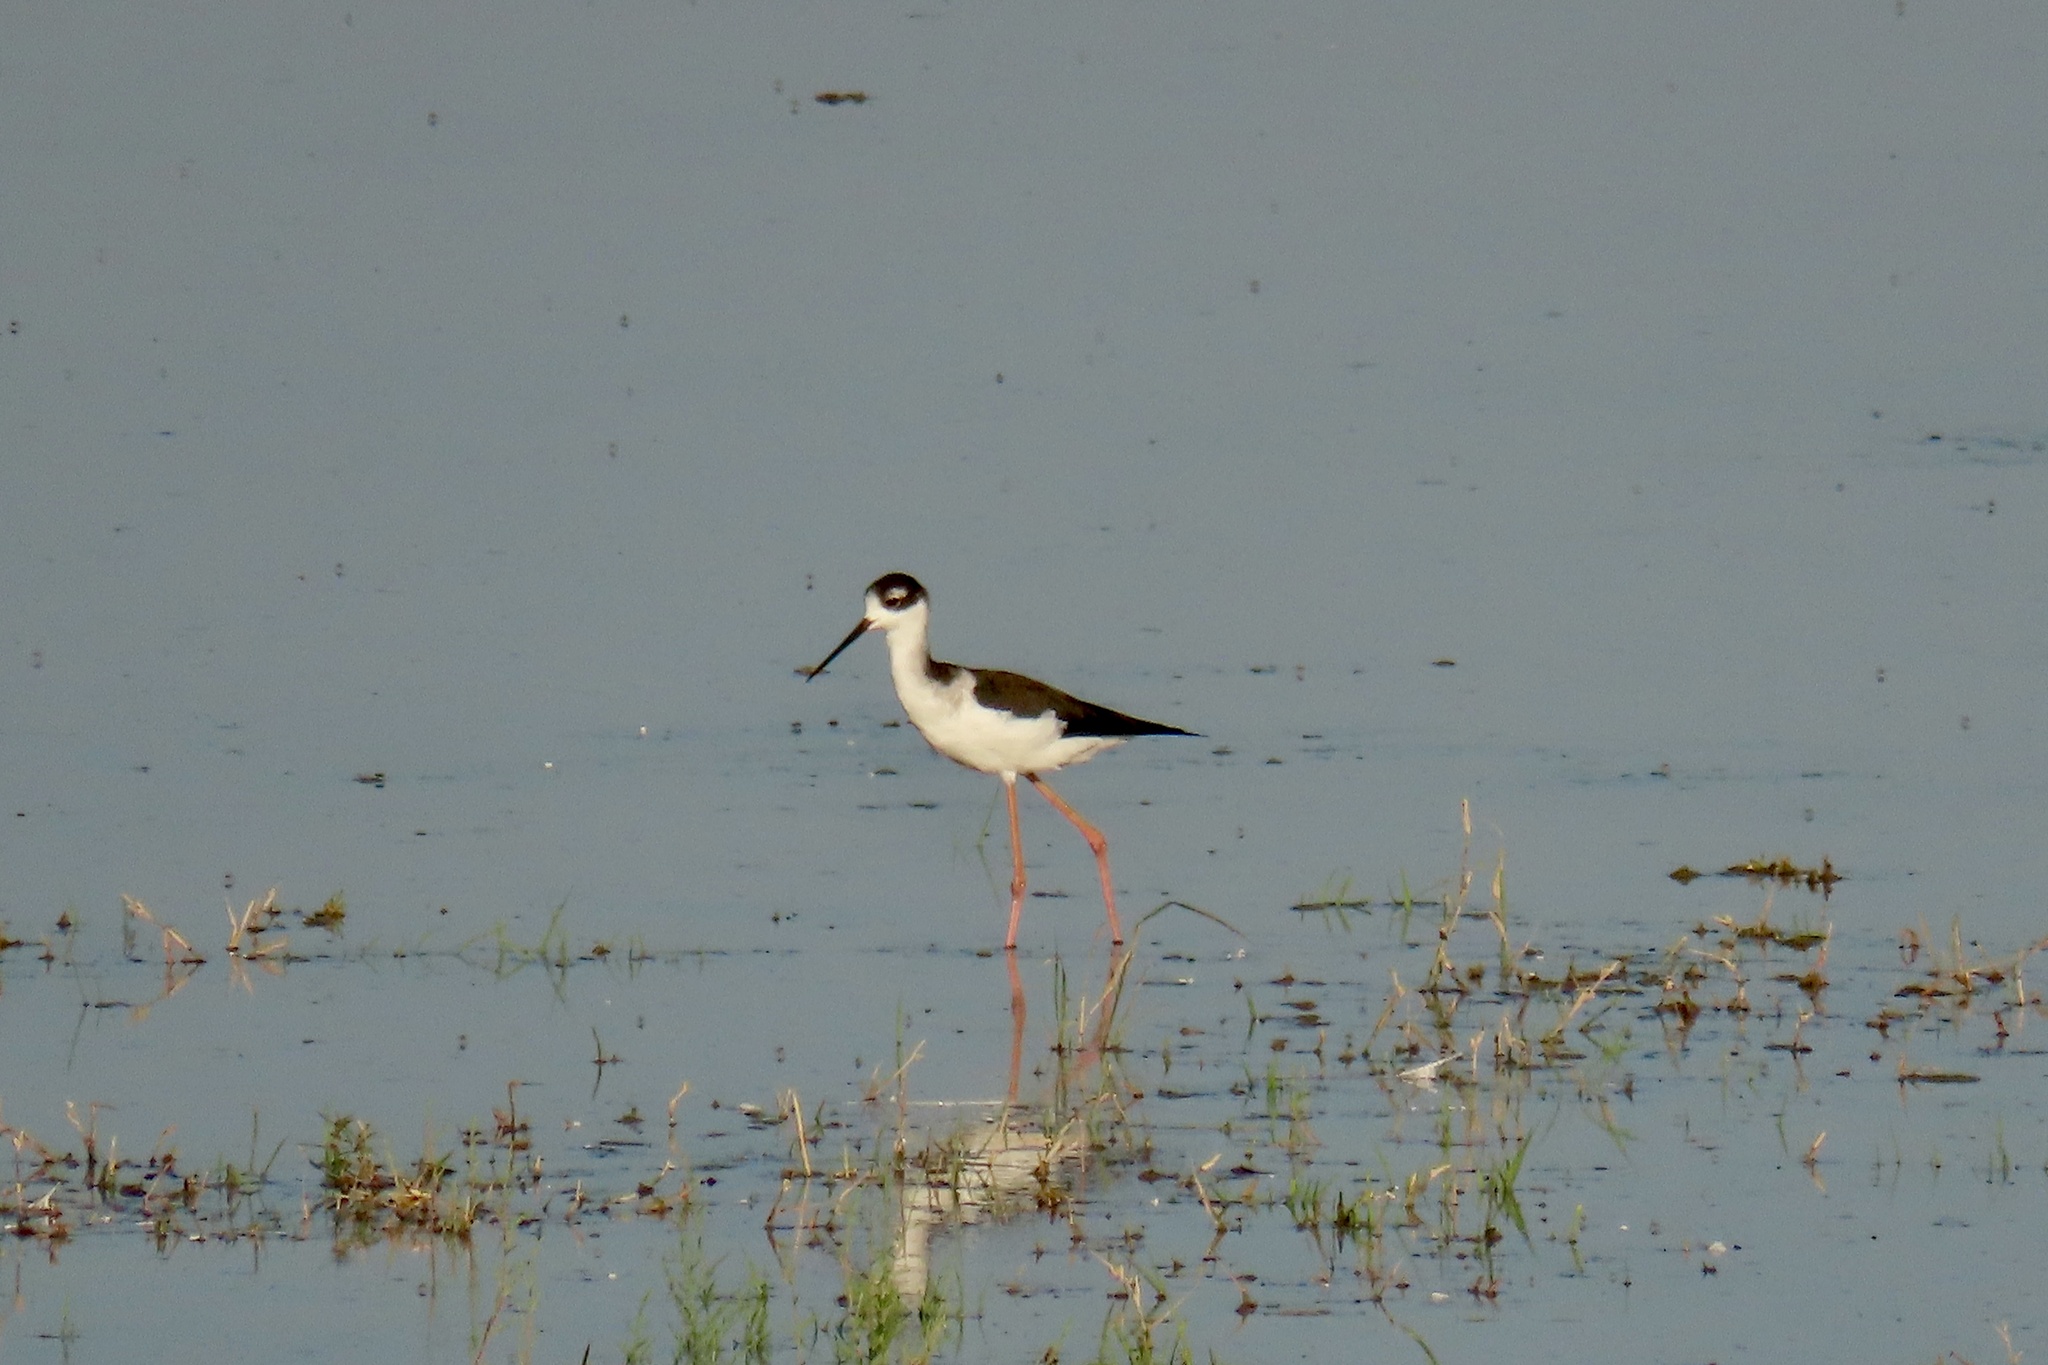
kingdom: Animalia
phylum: Chordata
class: Aves
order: Charadriiformes
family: Recurvirostridae
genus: Himantopus
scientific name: Himantopus mexicanus
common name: Black-necked stilt
